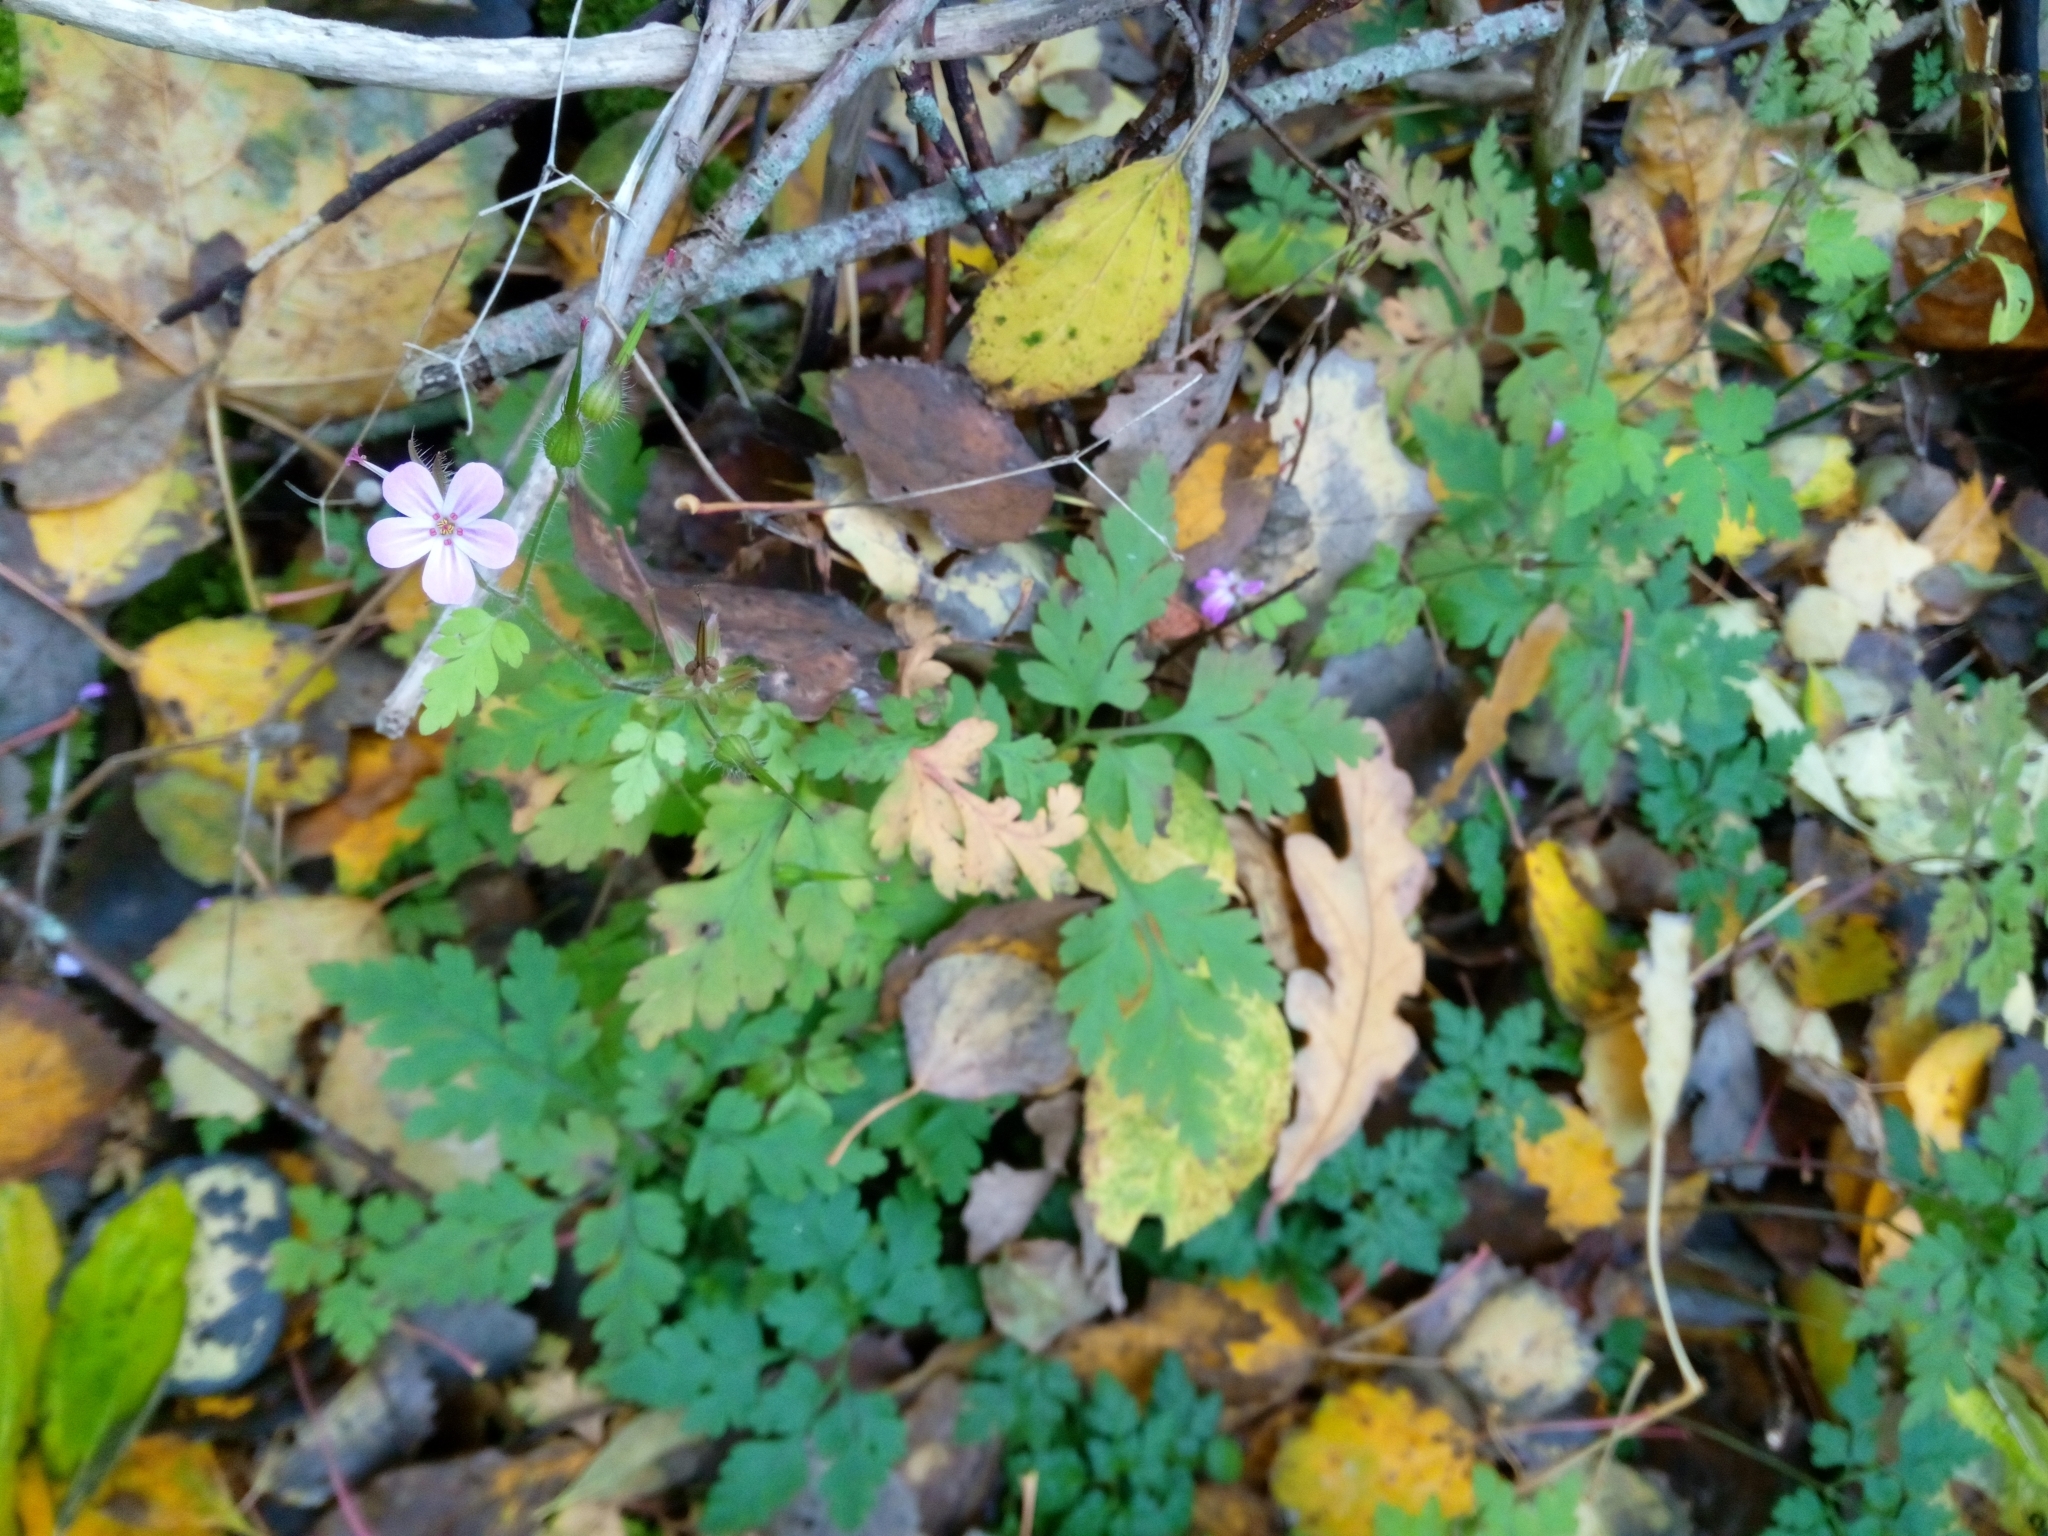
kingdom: Plantae
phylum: Tracheophyta
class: Magnoliopsida
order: Geraniales
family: Geraniaceae
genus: Geranium
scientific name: Geranium robertianum
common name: Herb-robert
